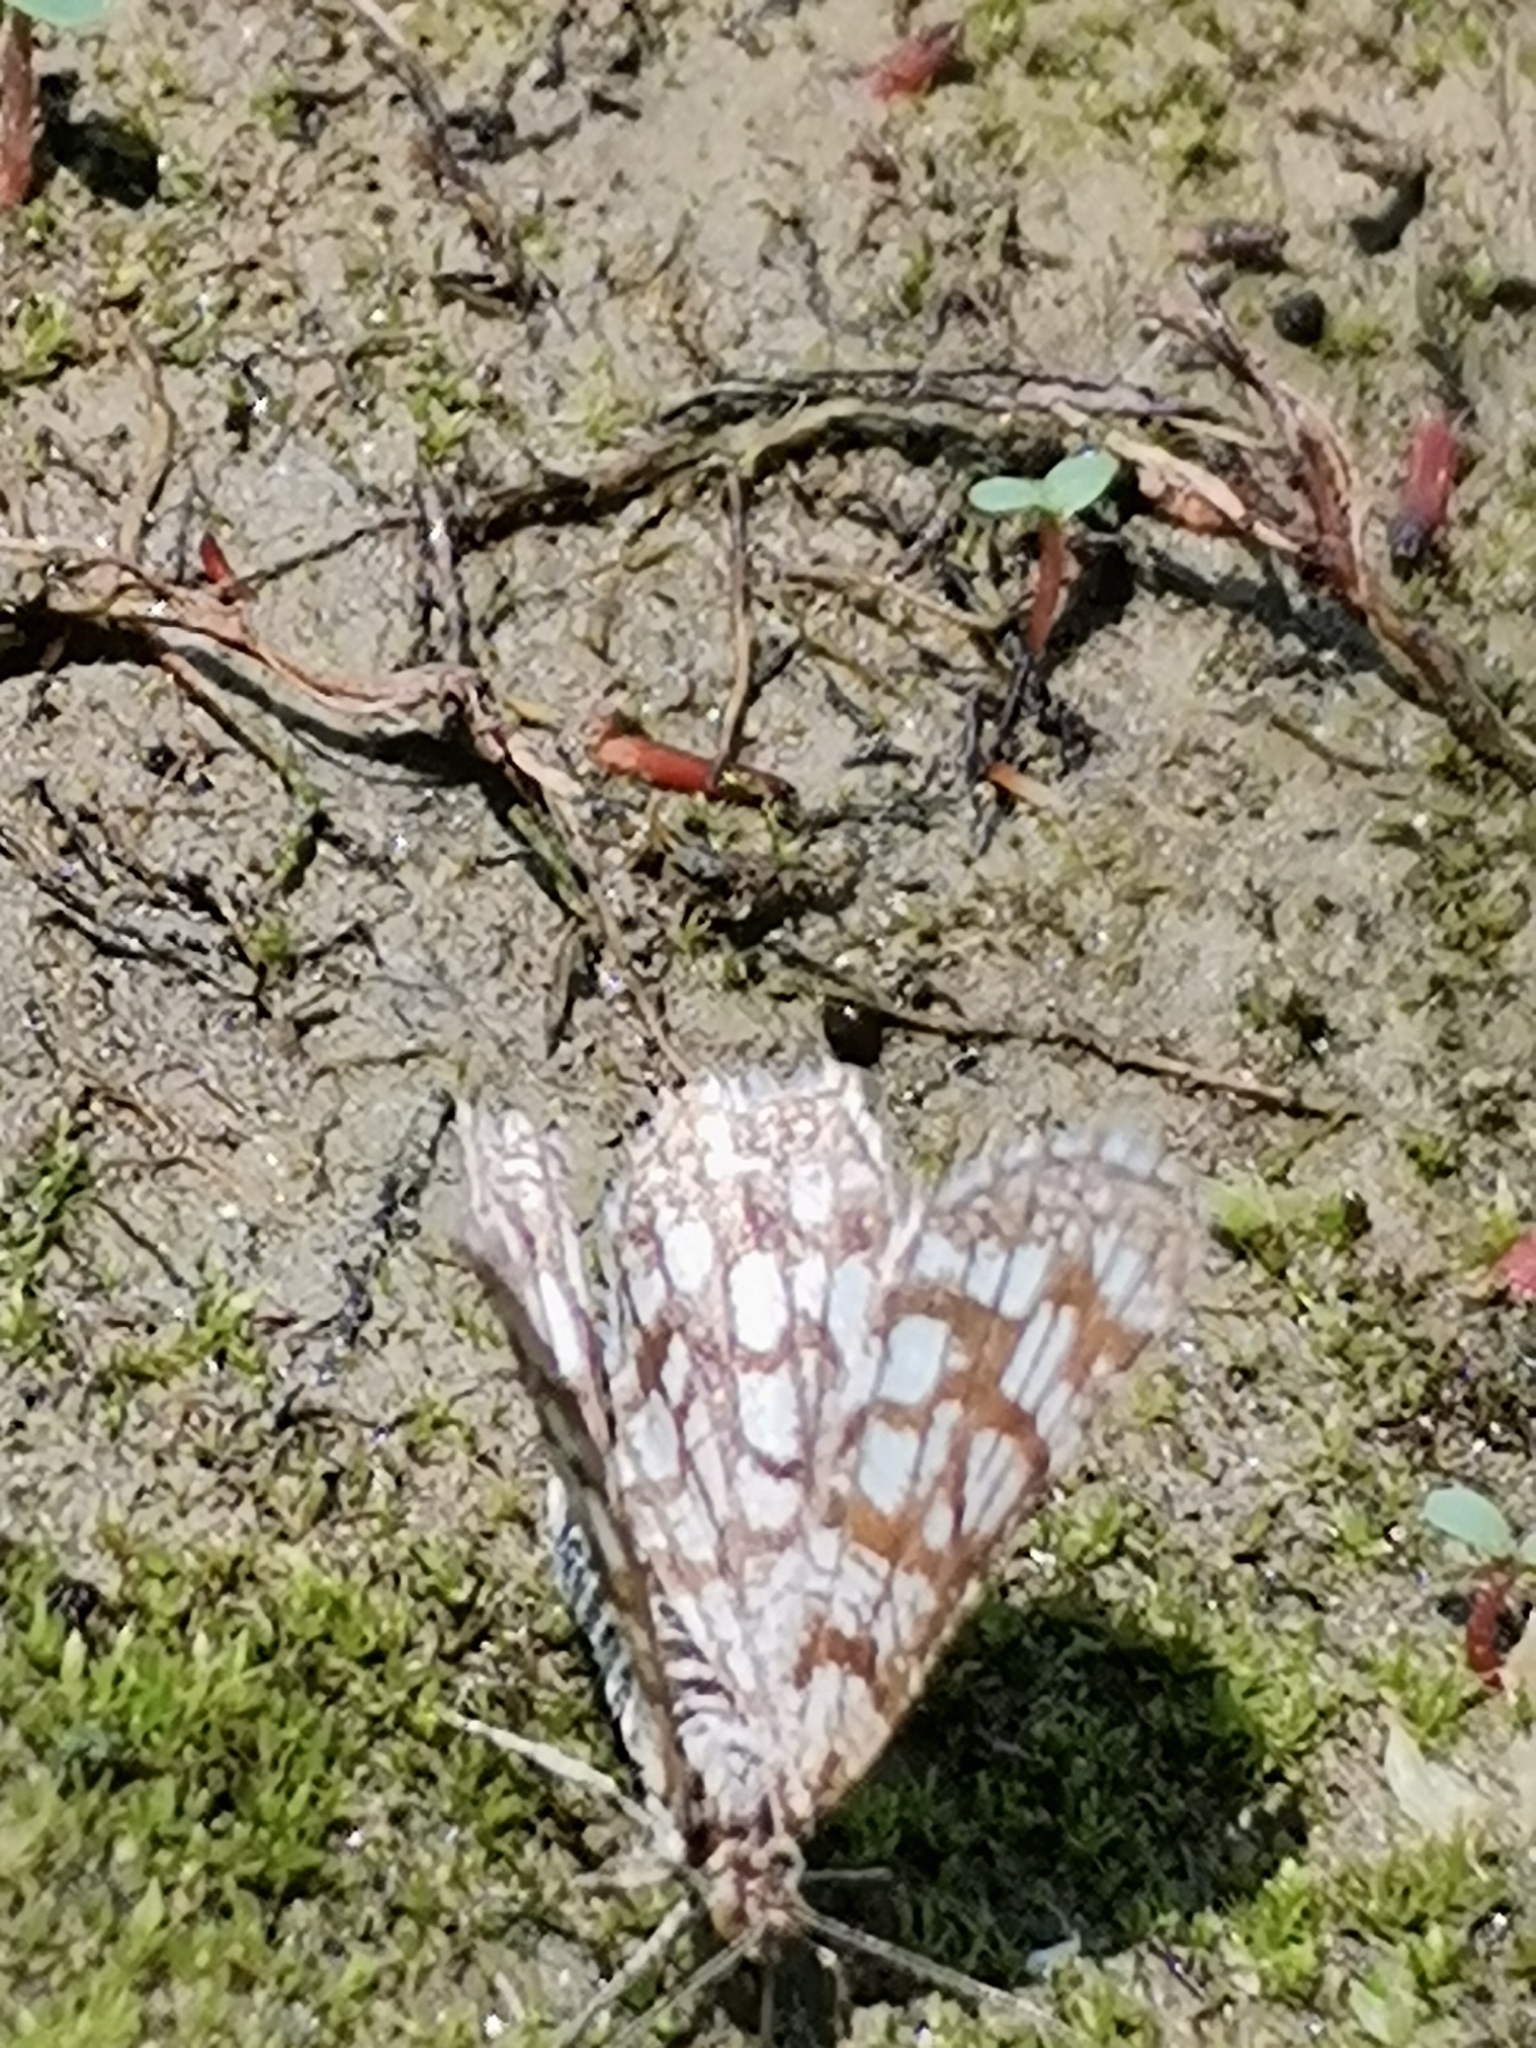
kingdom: Animalia
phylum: Arthropoda
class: Insecta
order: Lepidoptera
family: Geometridae
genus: Chiasmia
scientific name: Chiasmia clathrata
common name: Latticed heath
